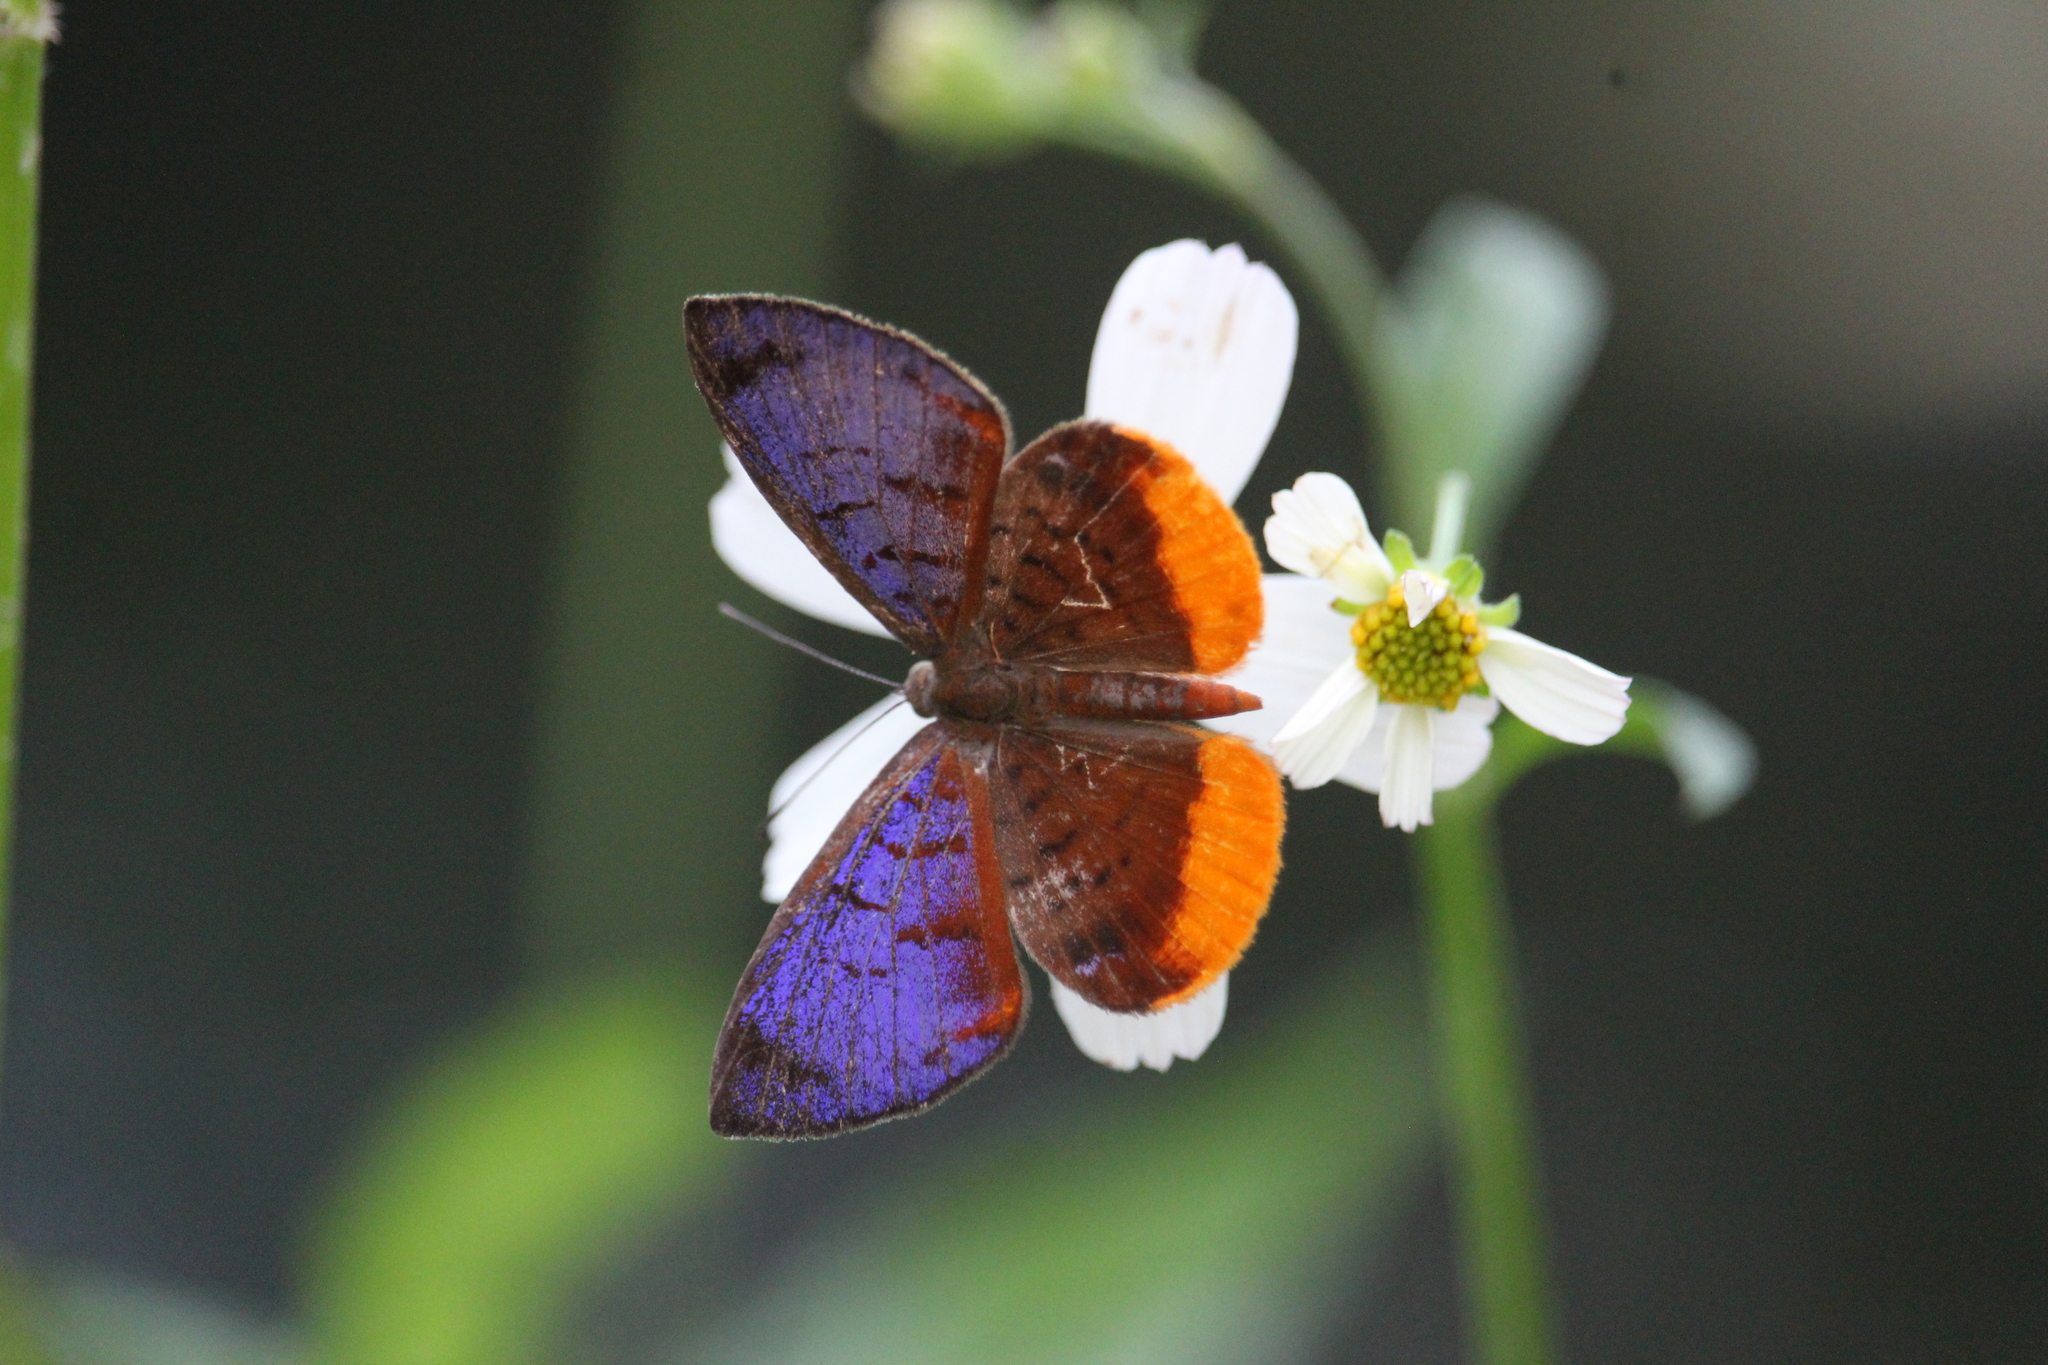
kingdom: Animalia
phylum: Arthropoda
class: Insecta
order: Lepidoptera
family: Riodinidae
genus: Hypophylla
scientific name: Hypophylla sudais
